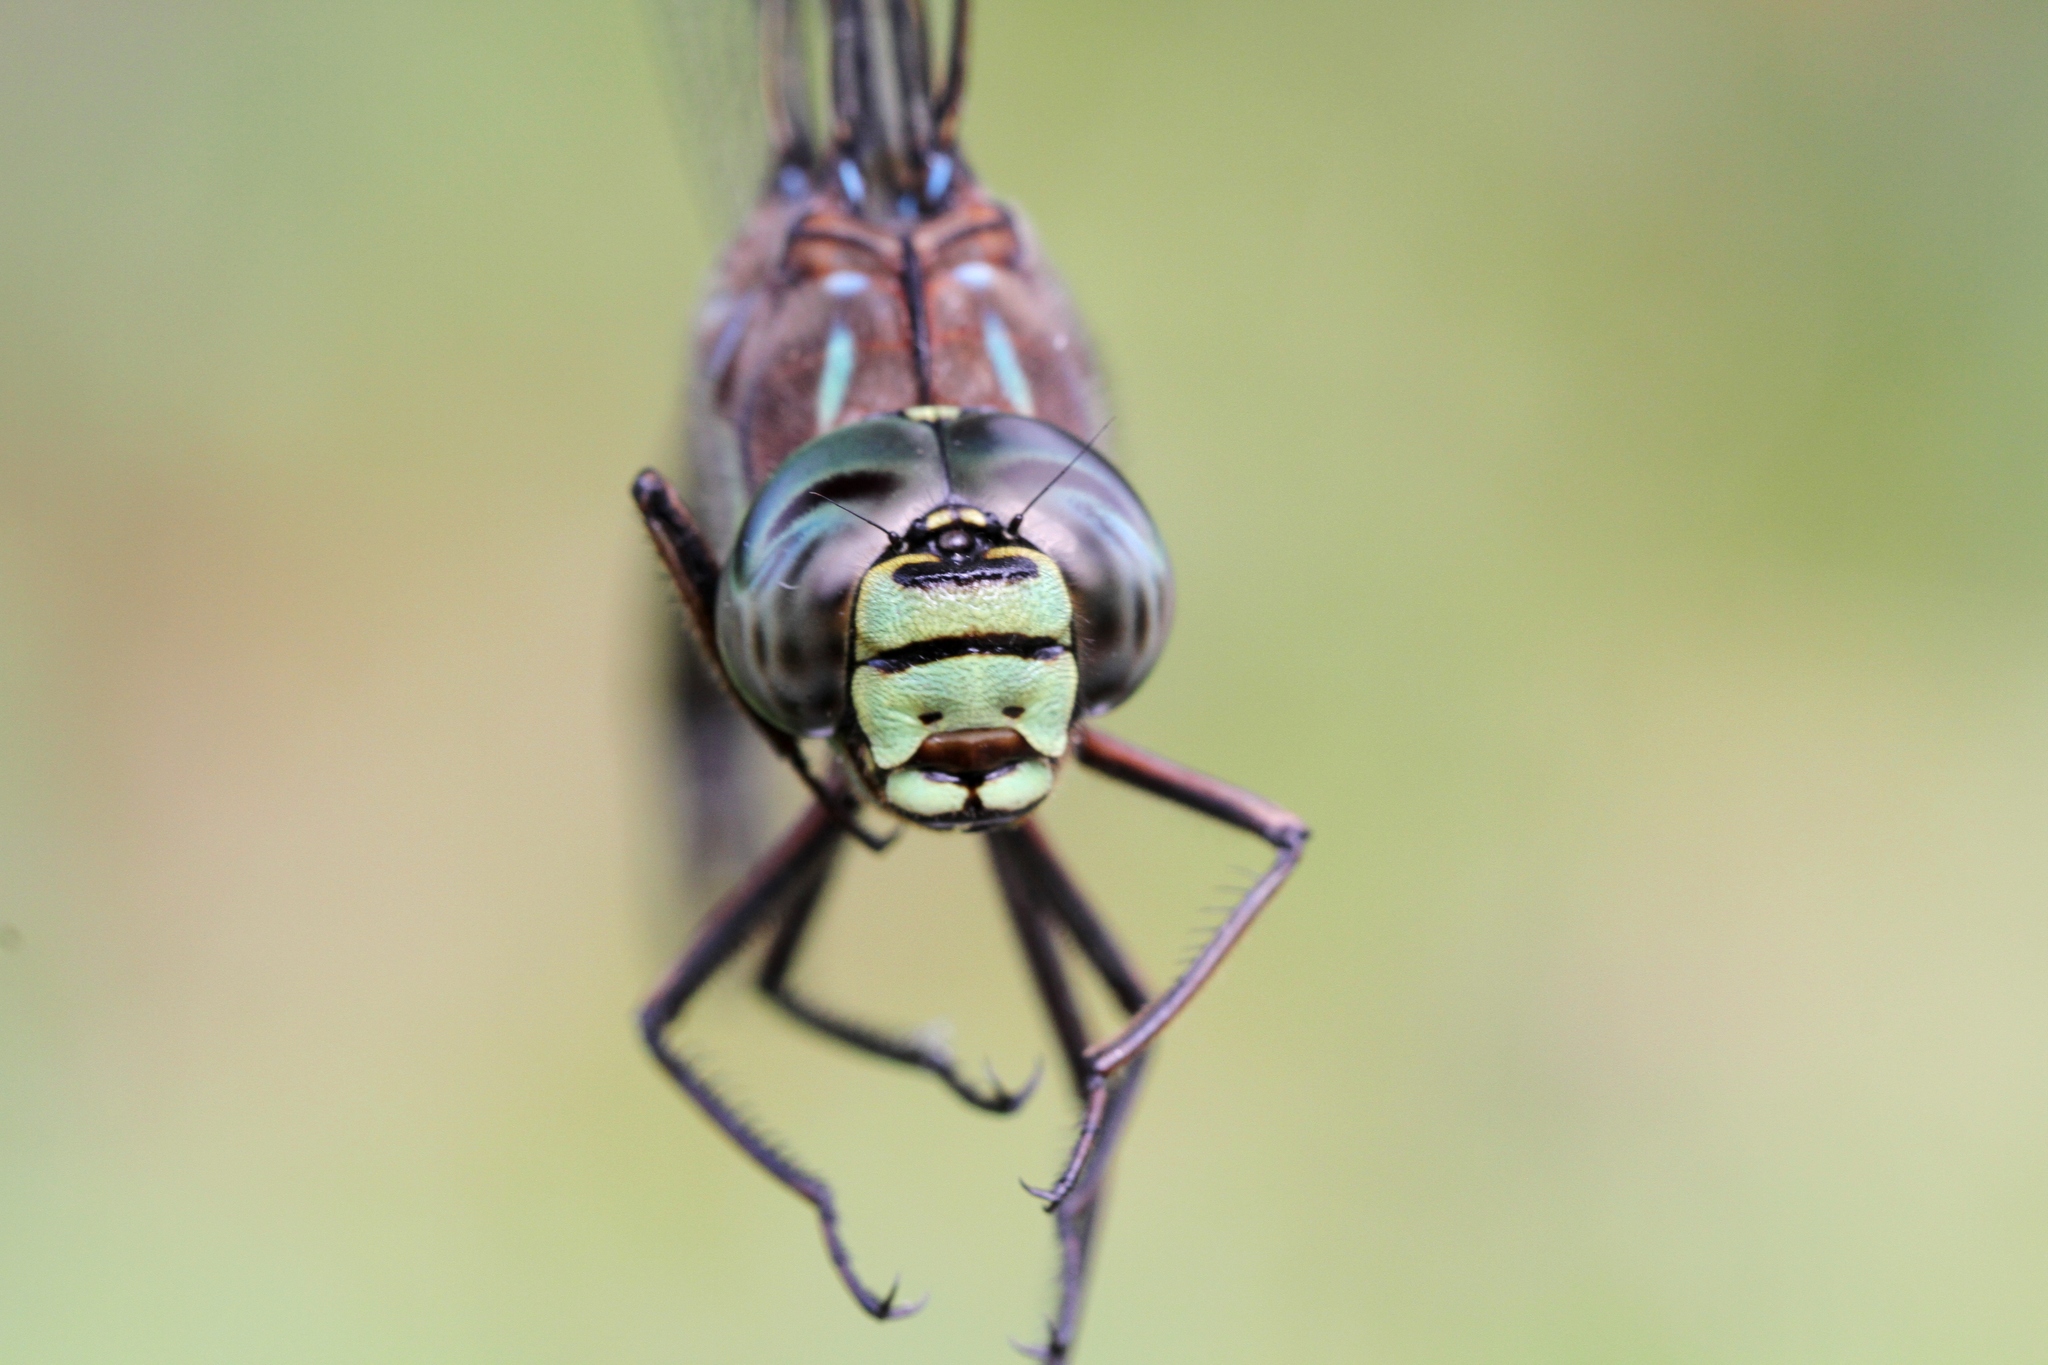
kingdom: Animalia
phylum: Arthropoda
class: Insecta
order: Odonata
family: Aeshnidae
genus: Aeshna
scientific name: Aeshna eremita
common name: Lake darner
